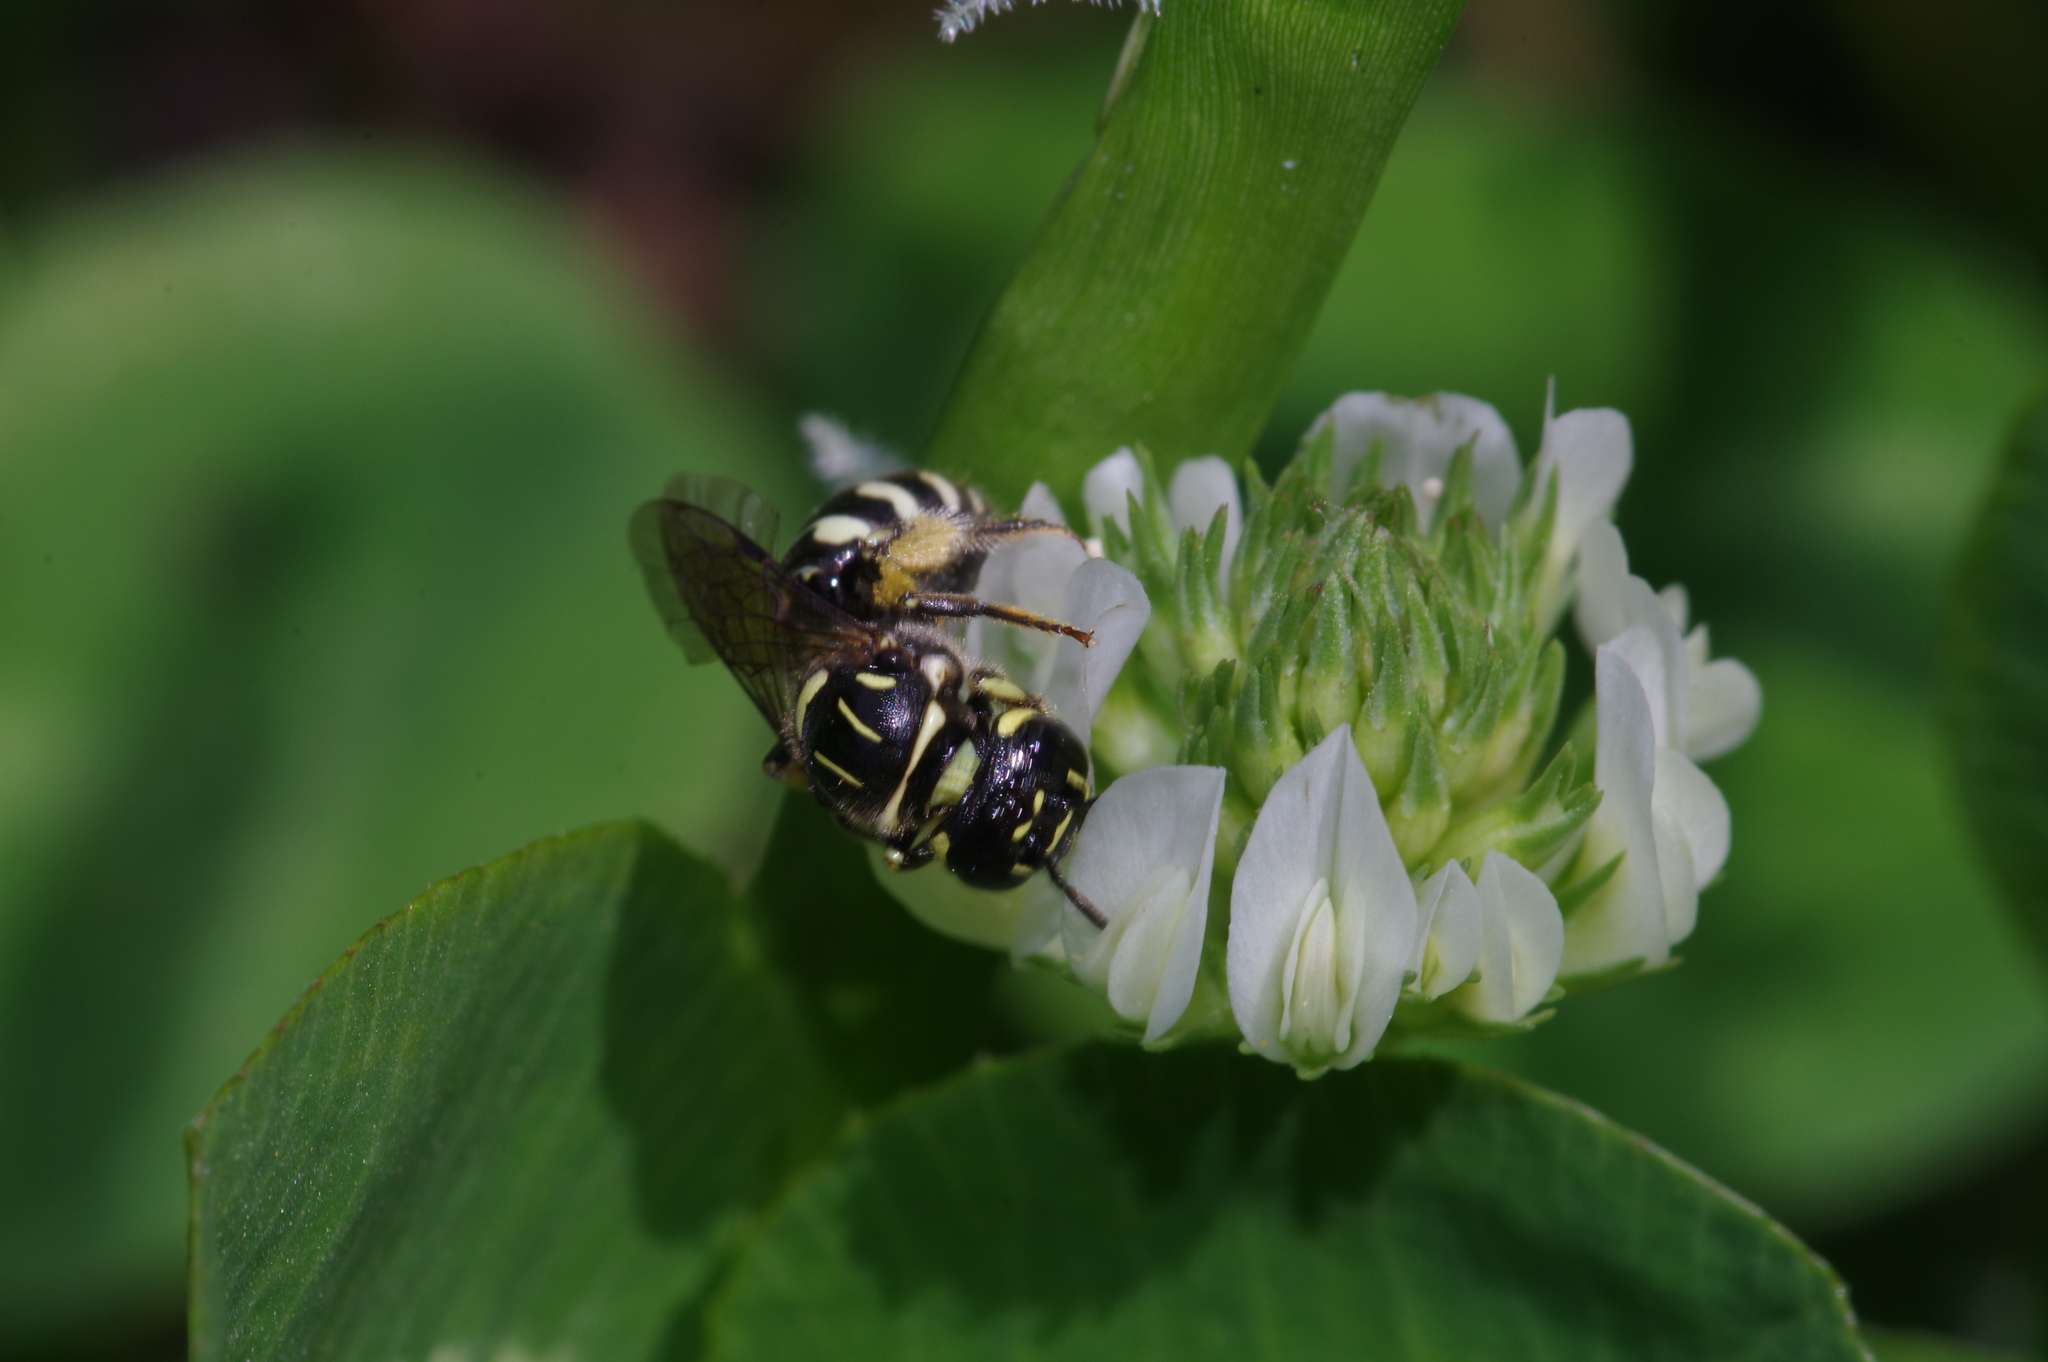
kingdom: Animalia
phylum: Arthropoda
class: Insecta
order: Hymenoptera
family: Apidae
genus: Ceratina
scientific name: Ceratina okinawana
